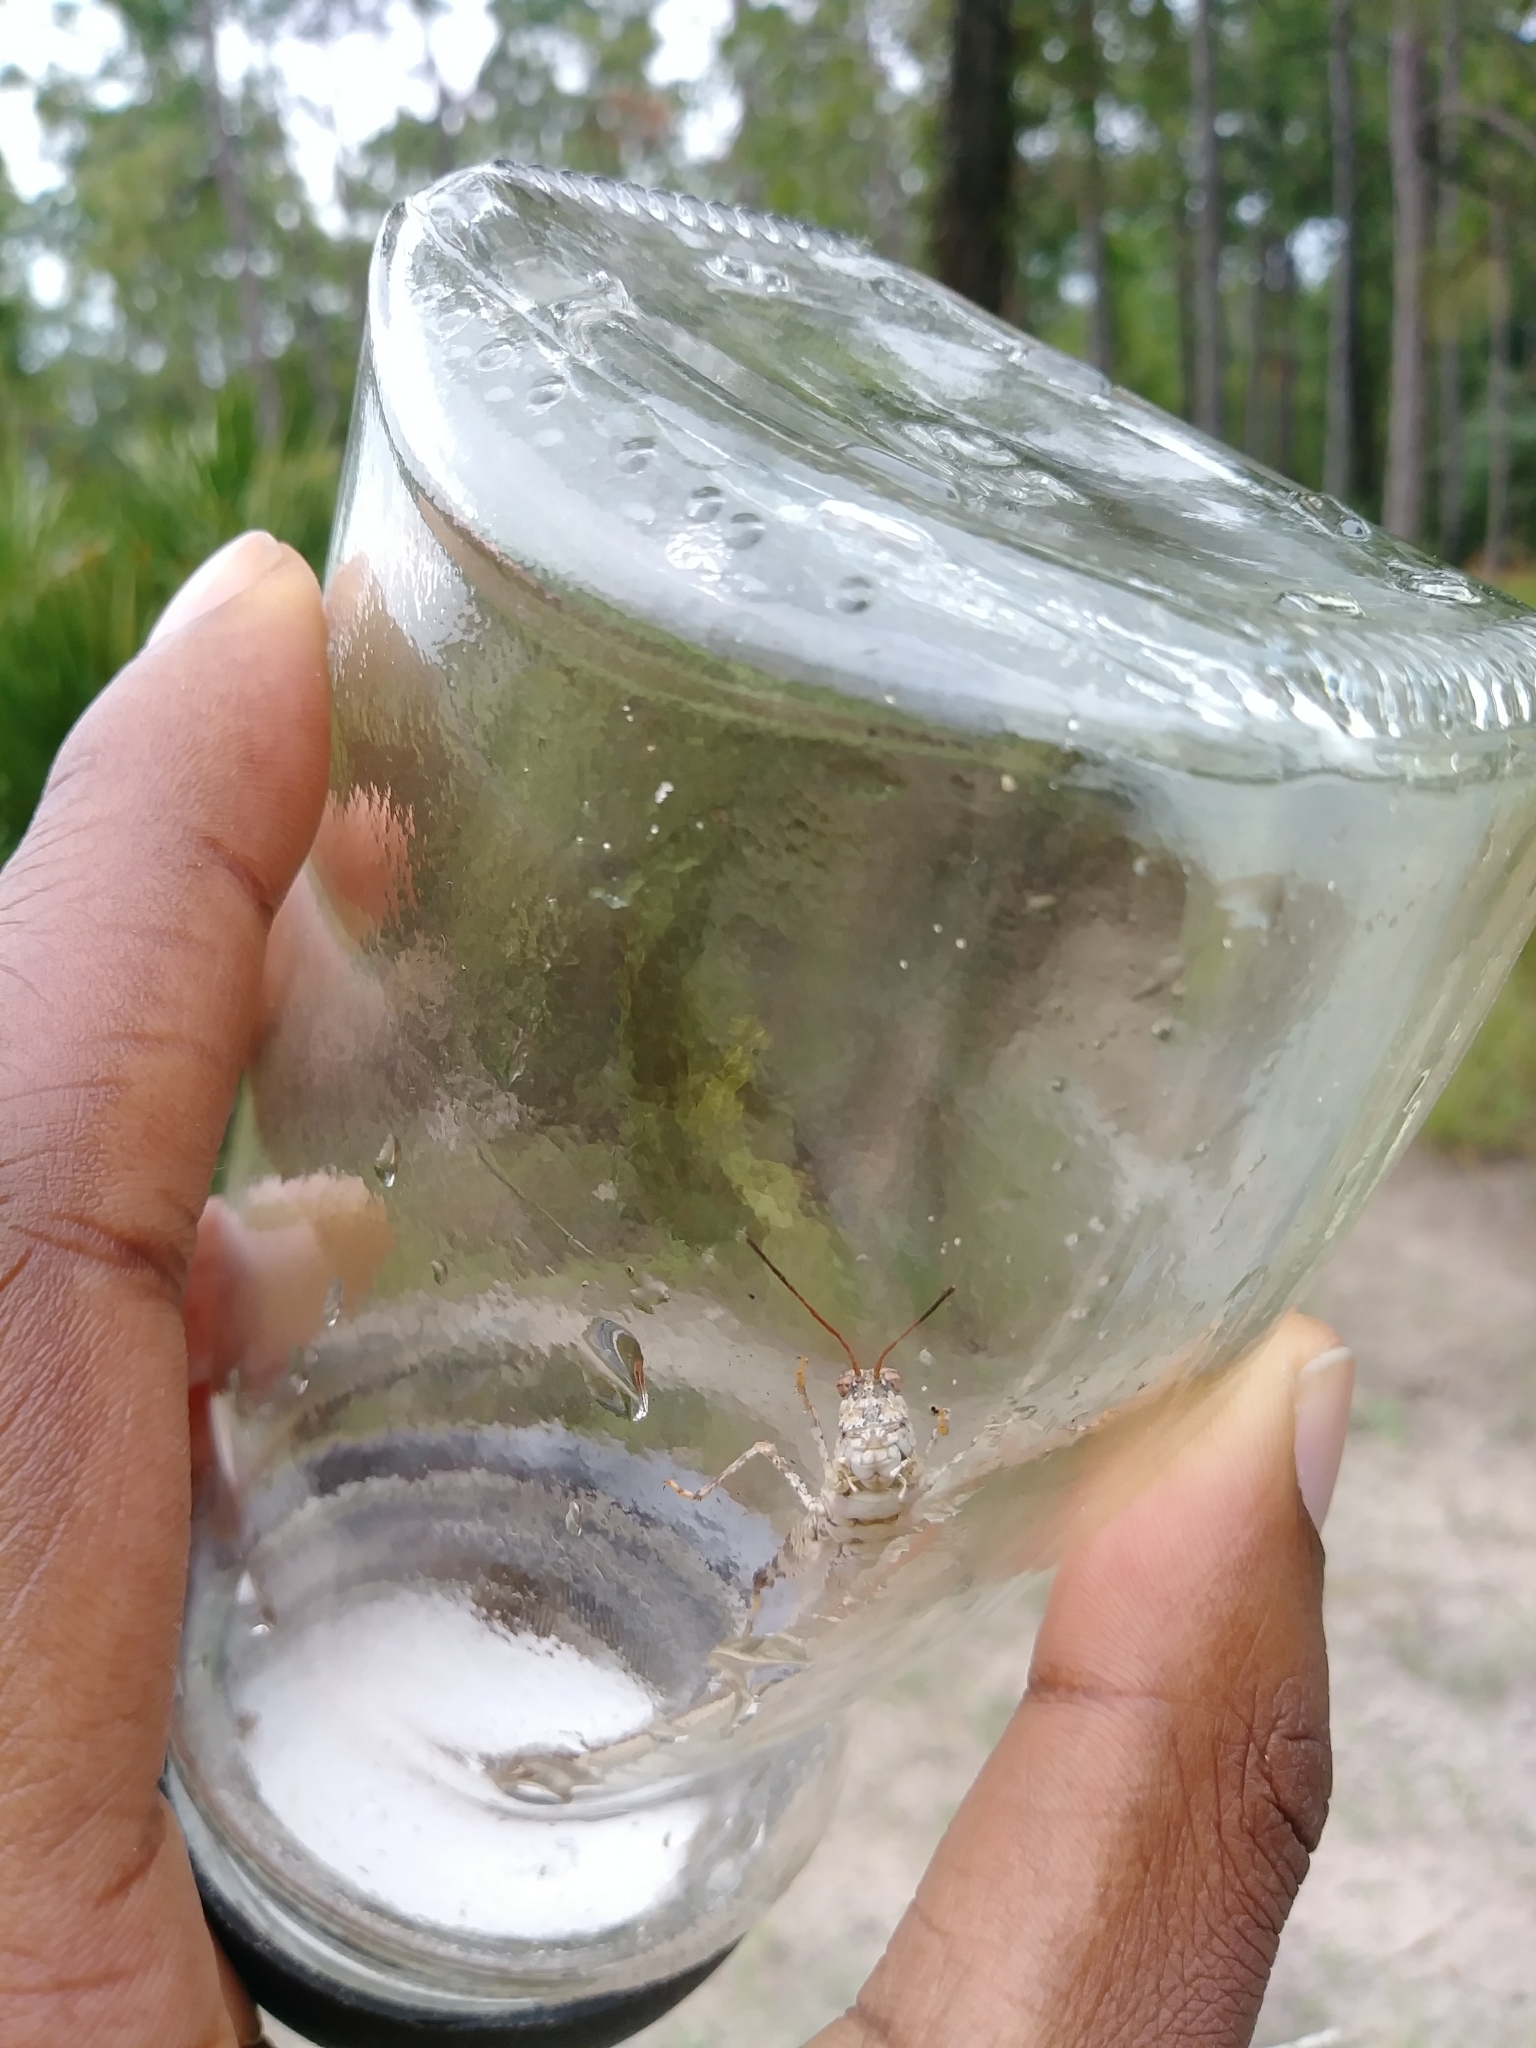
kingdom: Animalia
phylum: Arthropoda
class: Insecta
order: Orthoptera
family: Acrididae
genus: Psinidia
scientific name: Psinidia fenestralis
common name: Long-horned locust
